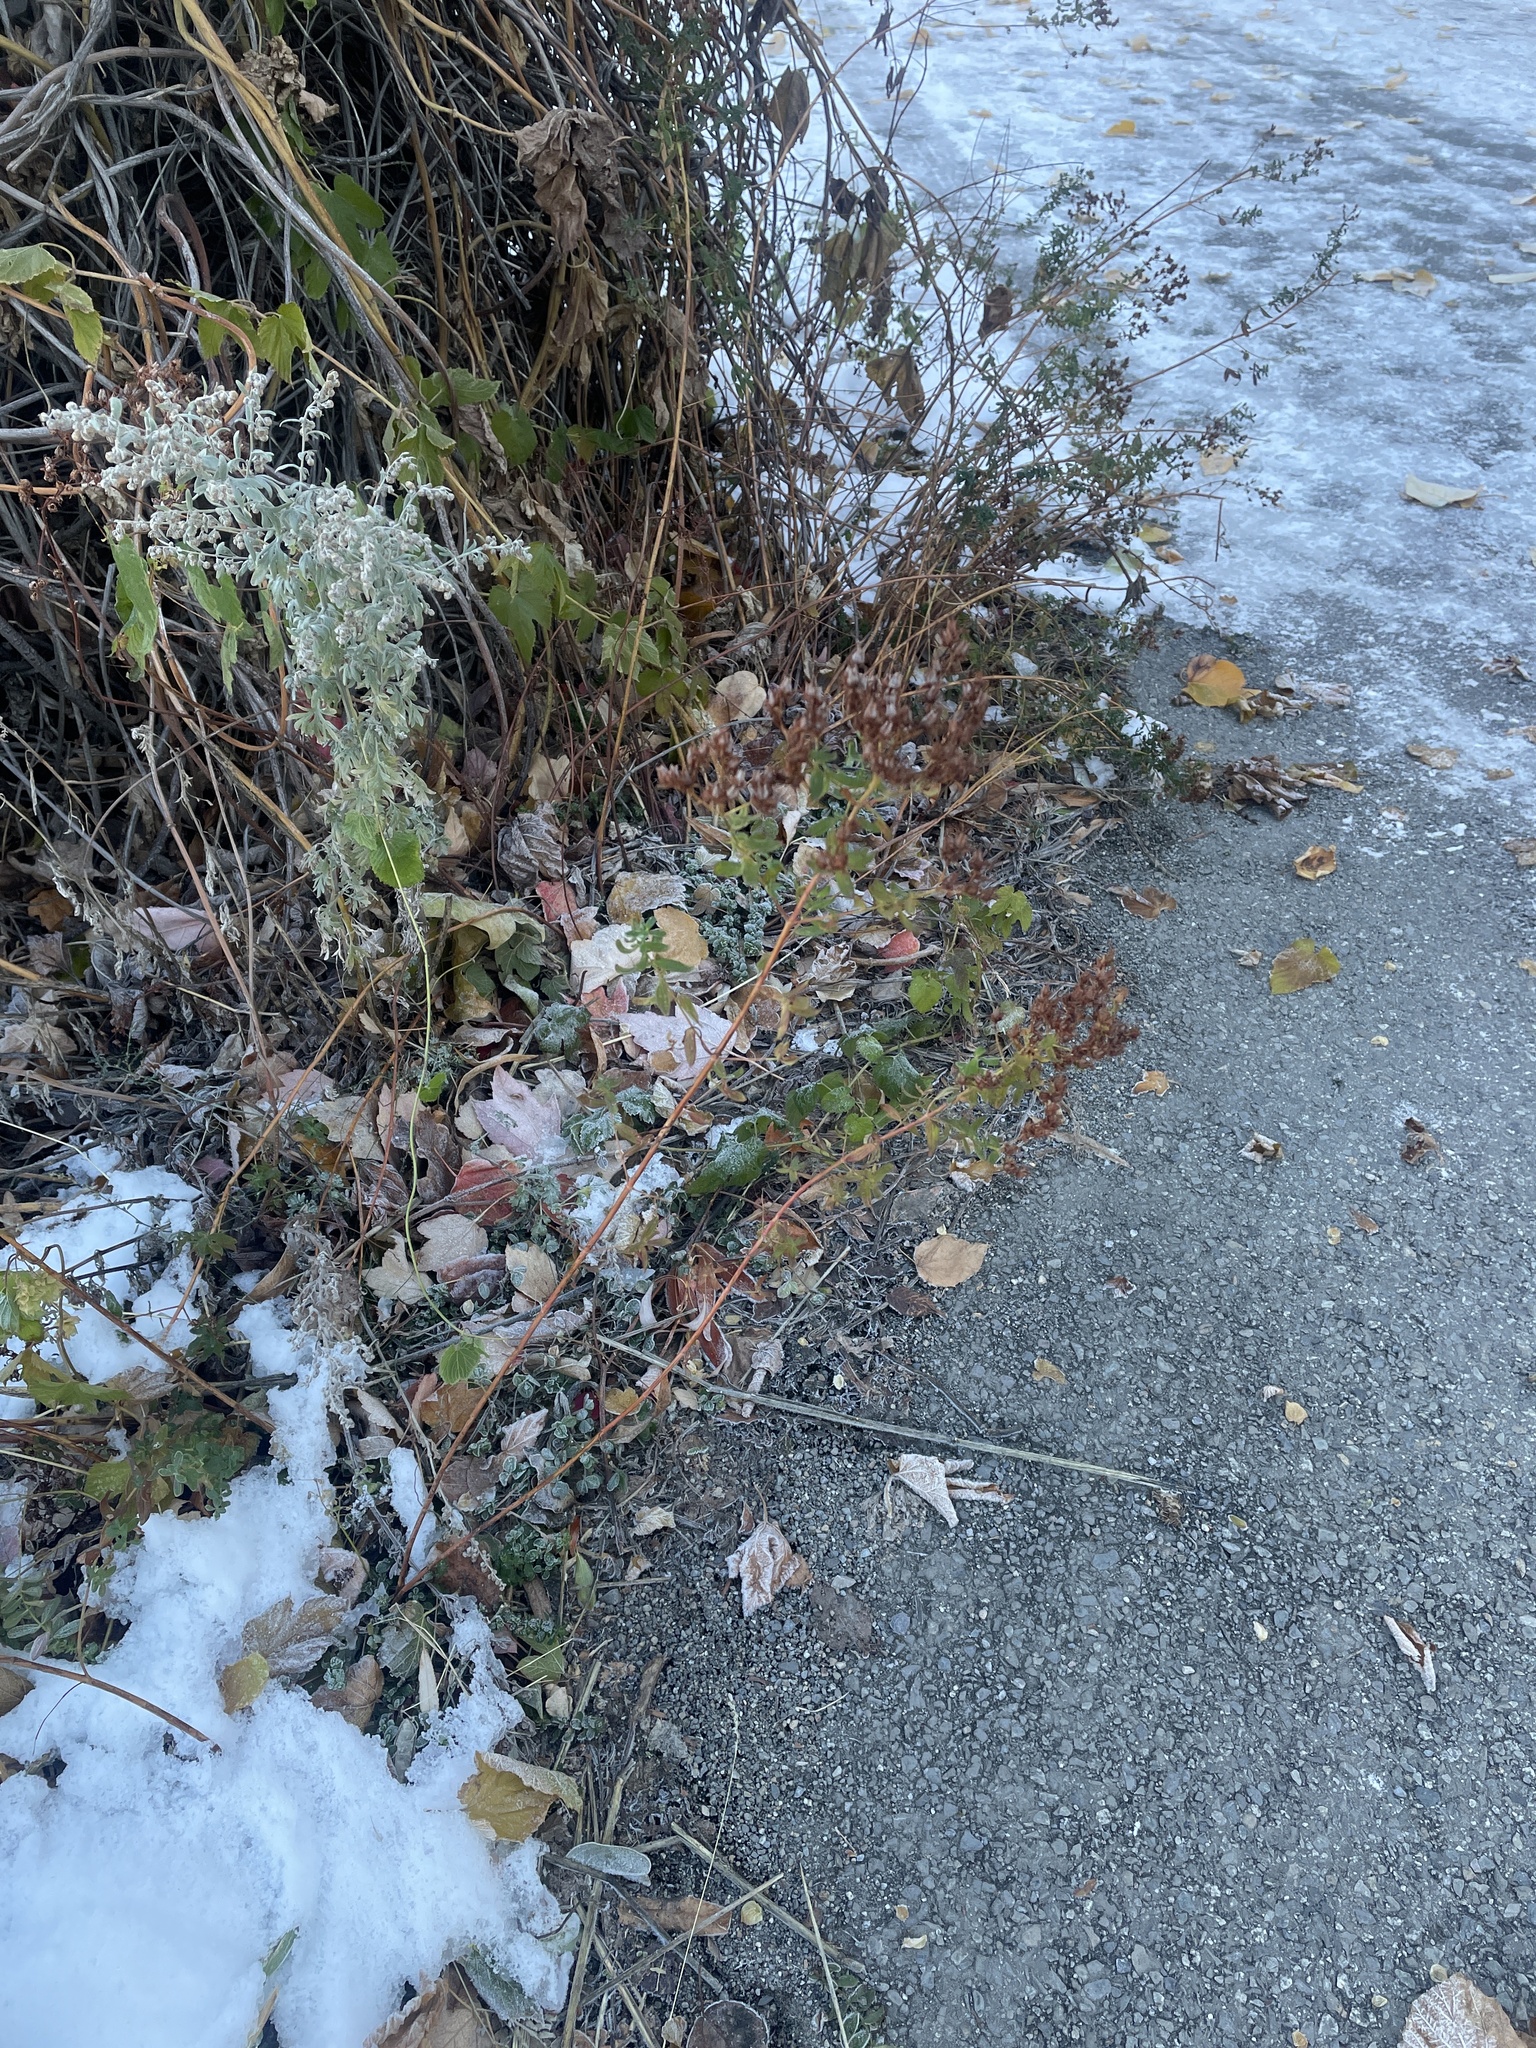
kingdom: Plantae
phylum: Tracheophyta
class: Magnoliopsida
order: Malpighiales
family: Hypericaceae
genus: Hypericum
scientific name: Hypericum perforatum
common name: Common st. johnswort
